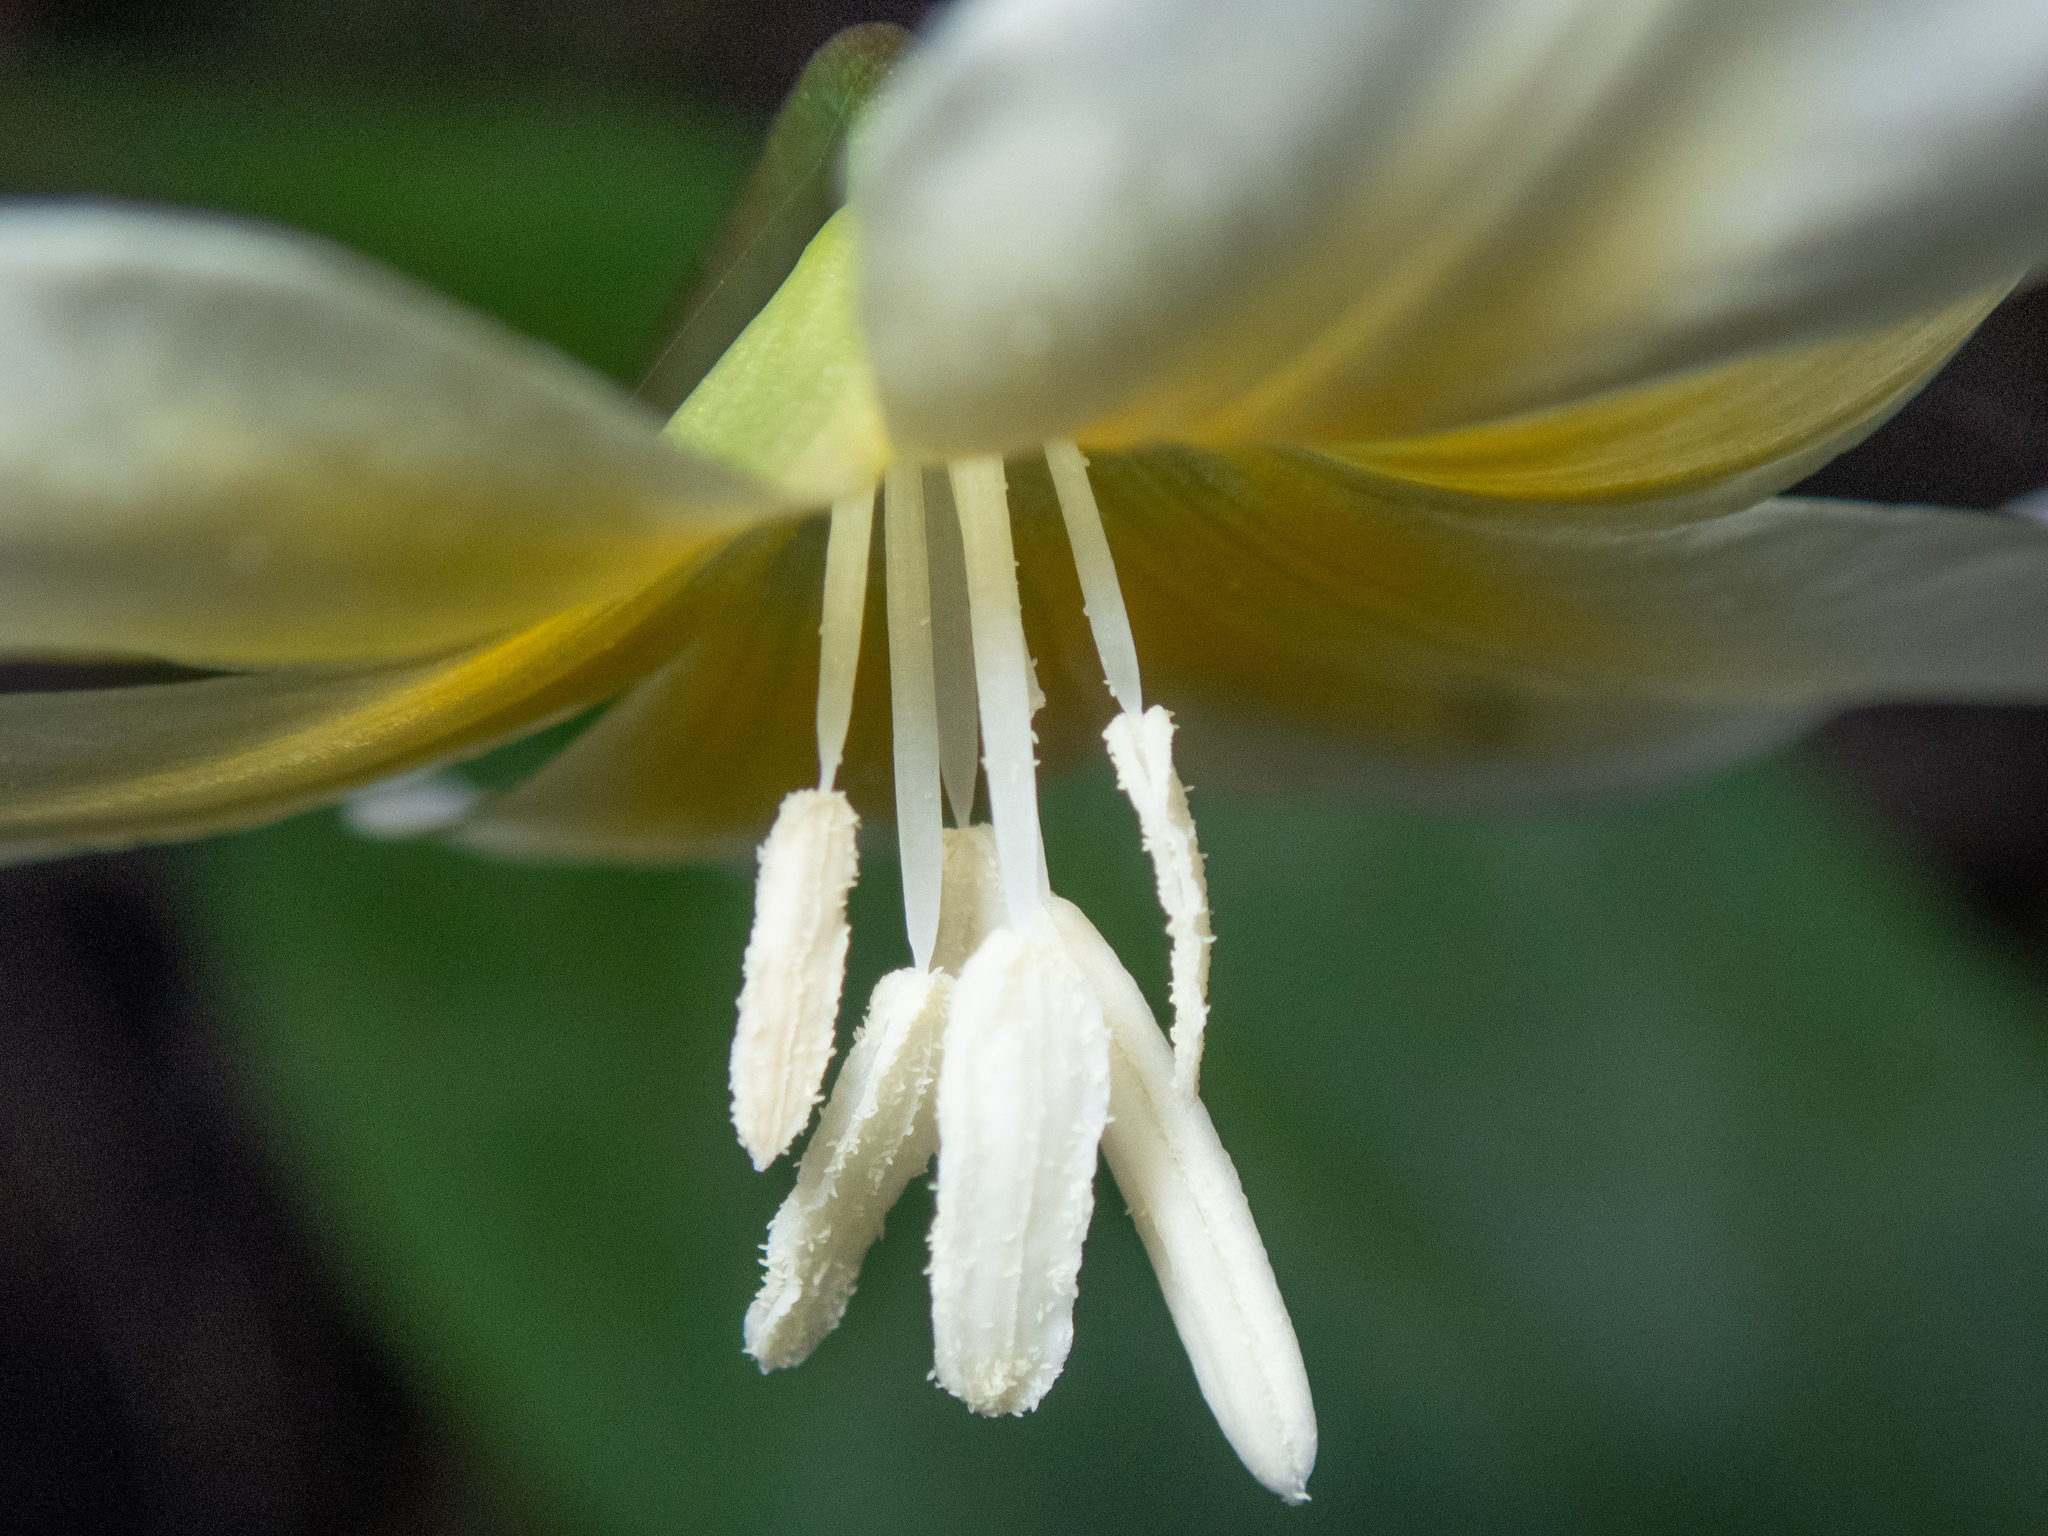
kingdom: Plantae
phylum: Tracheophyta
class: Liliopsida
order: Liliales
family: Liliaceae
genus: Erythronium
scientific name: Erythronium californicum
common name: Fawn-lily
